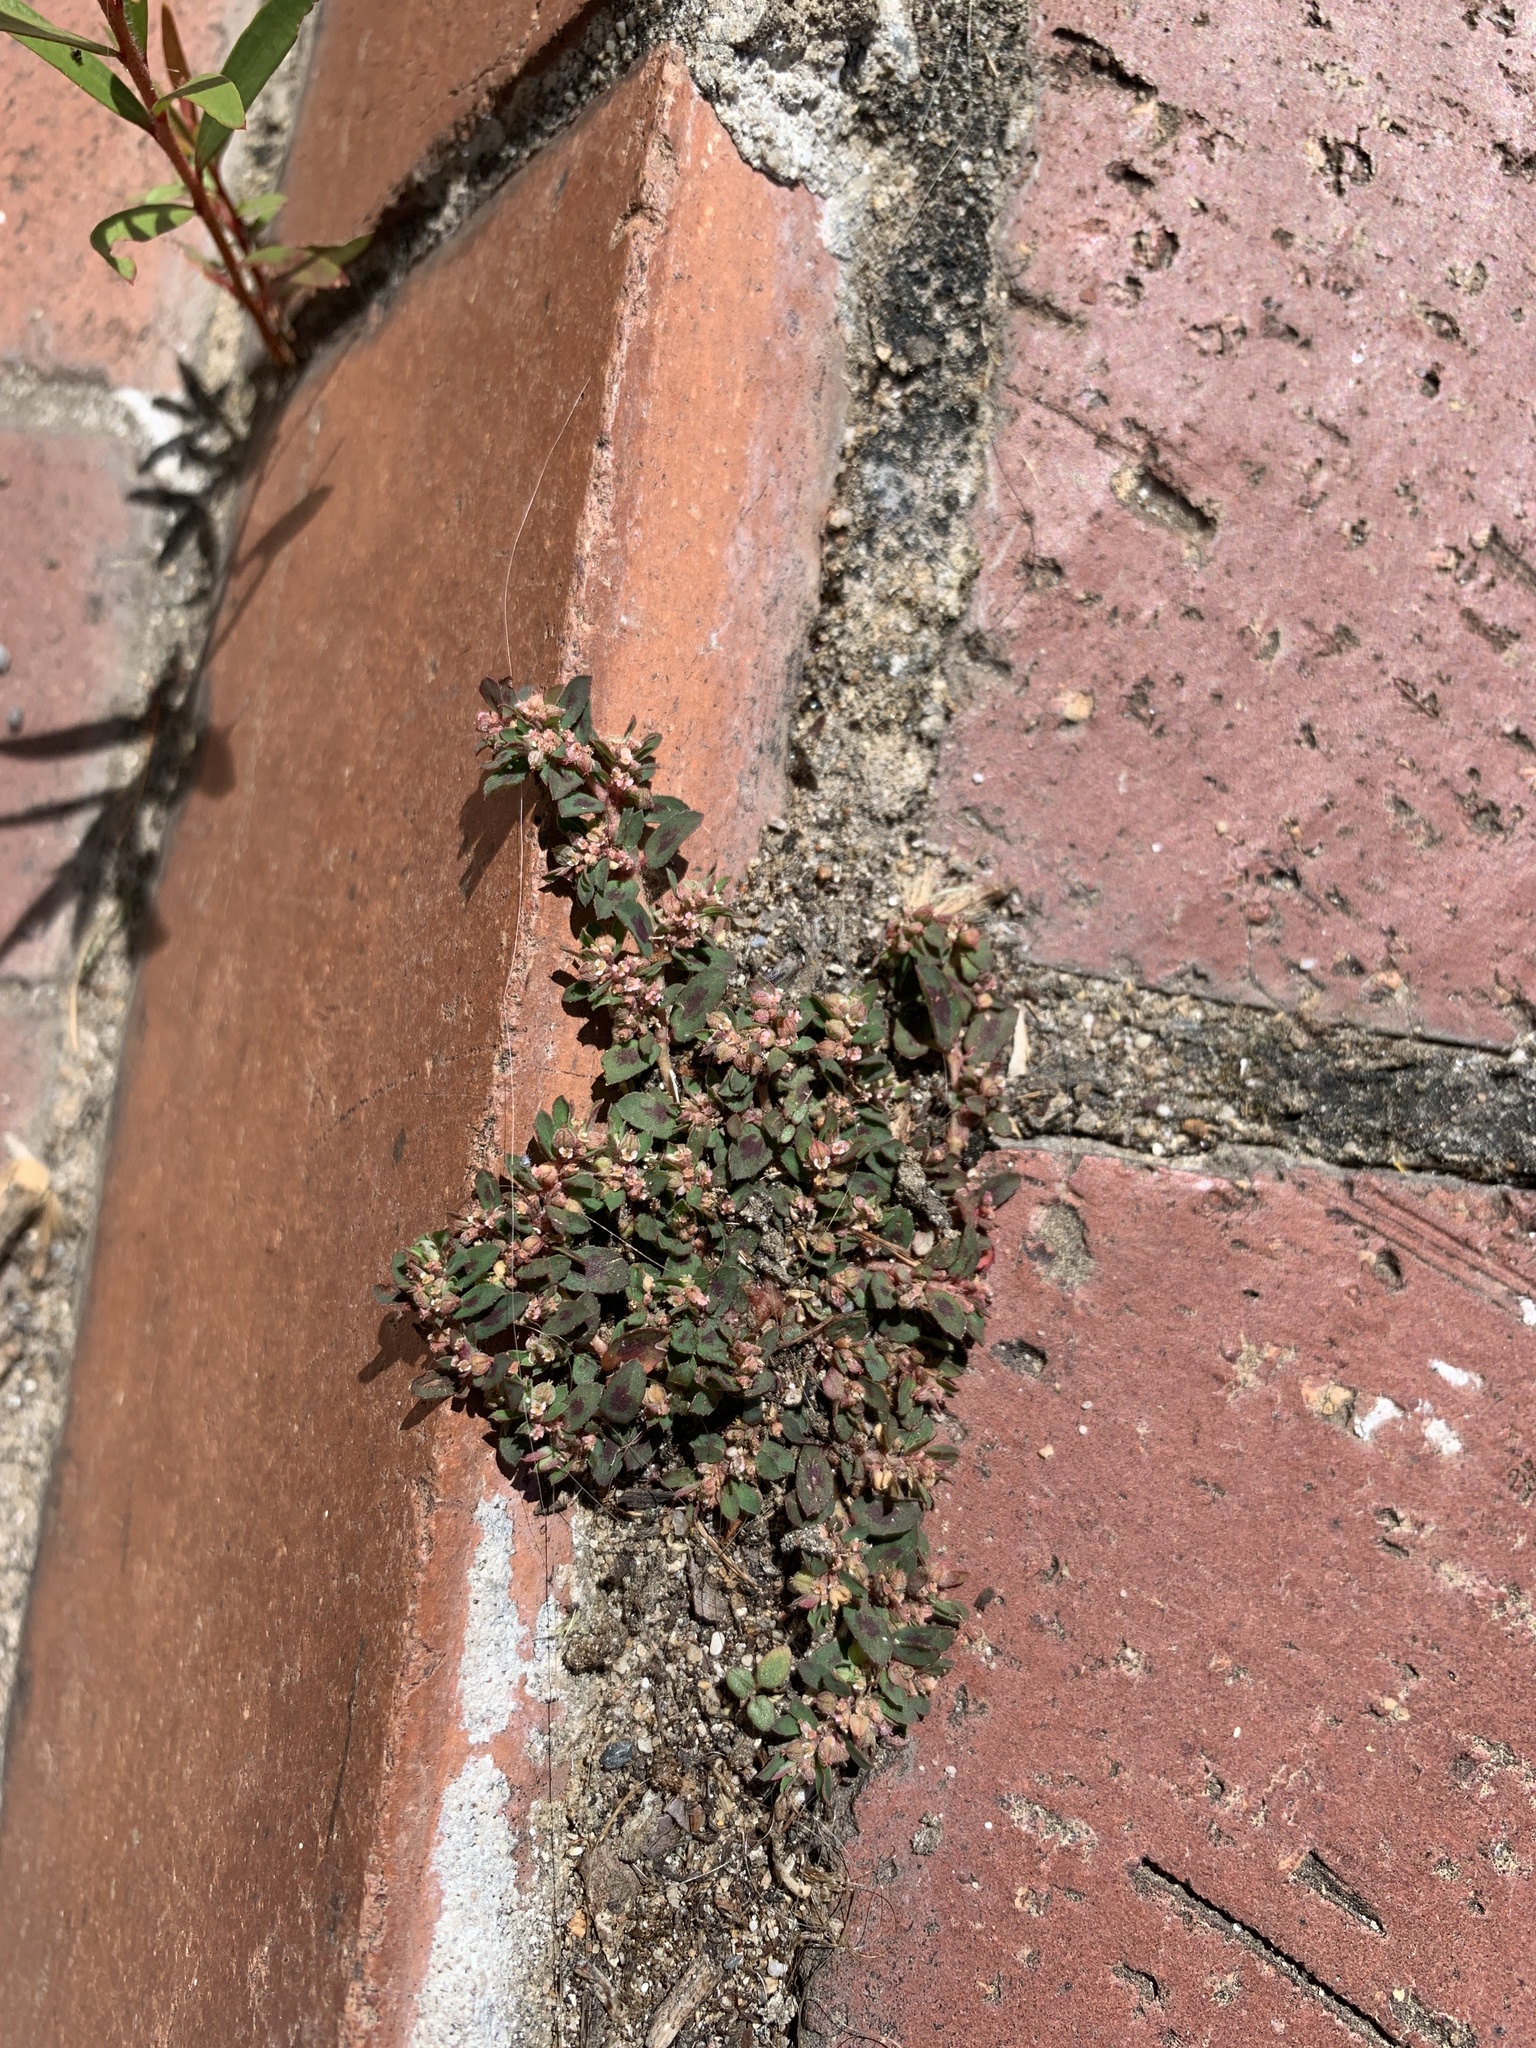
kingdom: Plantae
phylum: Tracheophyta
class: Magnoliopsida
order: Malpighiales
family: Euphorbiaceae
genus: Euphorbia
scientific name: Euphorbia maculata
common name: Spotted spurge
